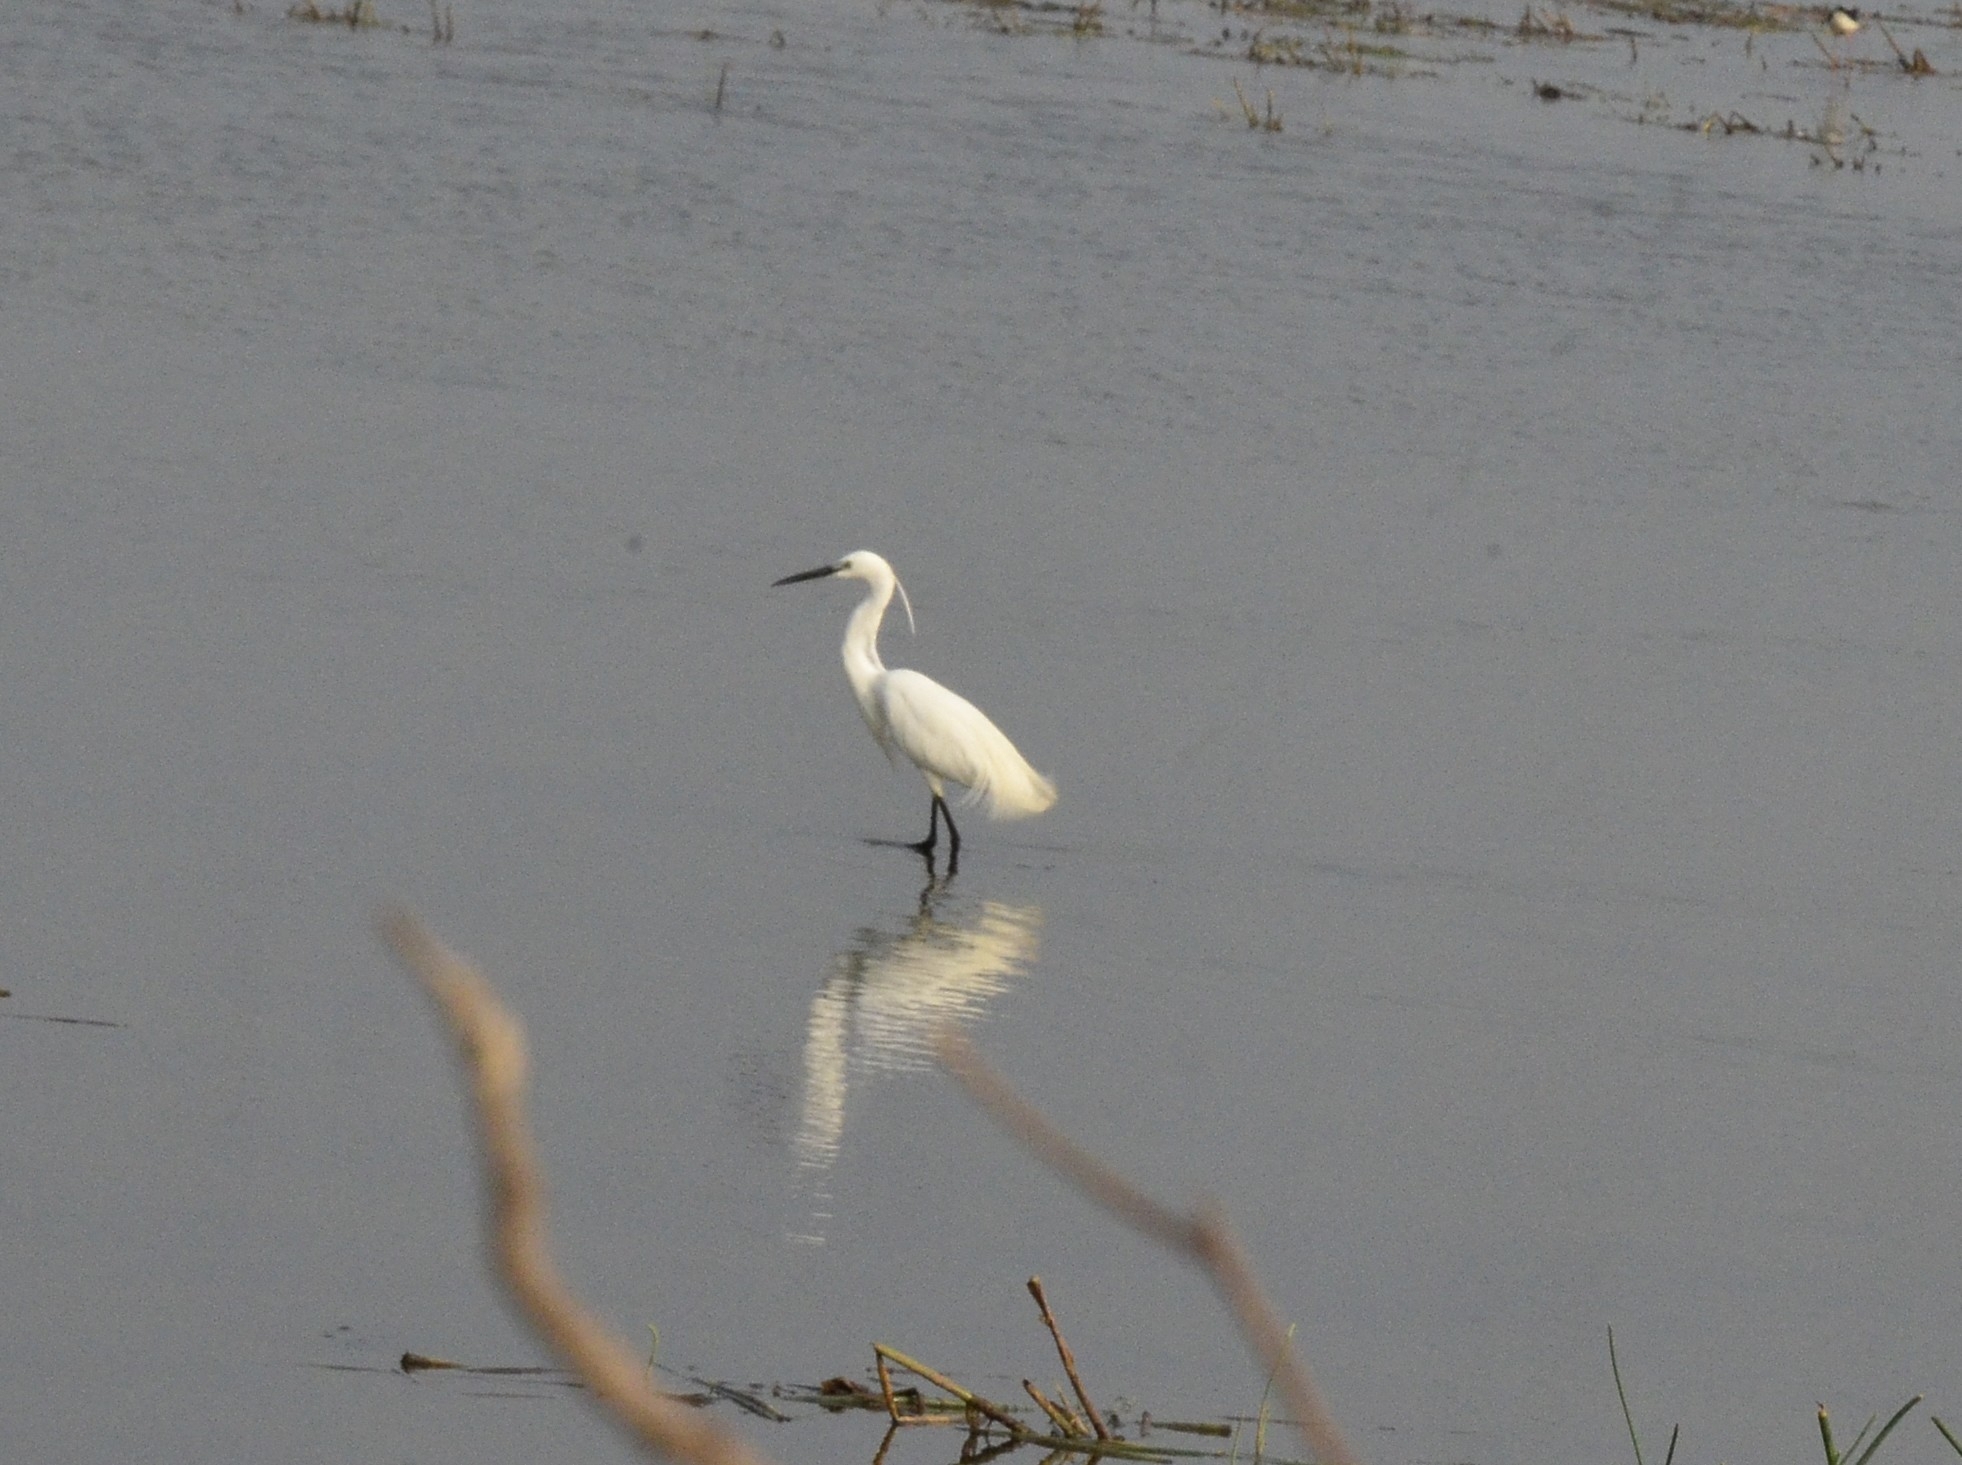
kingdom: Animalia
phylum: Chordata
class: Aves
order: Pelecaniformes
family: Ardeidae
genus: Egretta
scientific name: Egretta garzetta
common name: Little egret
